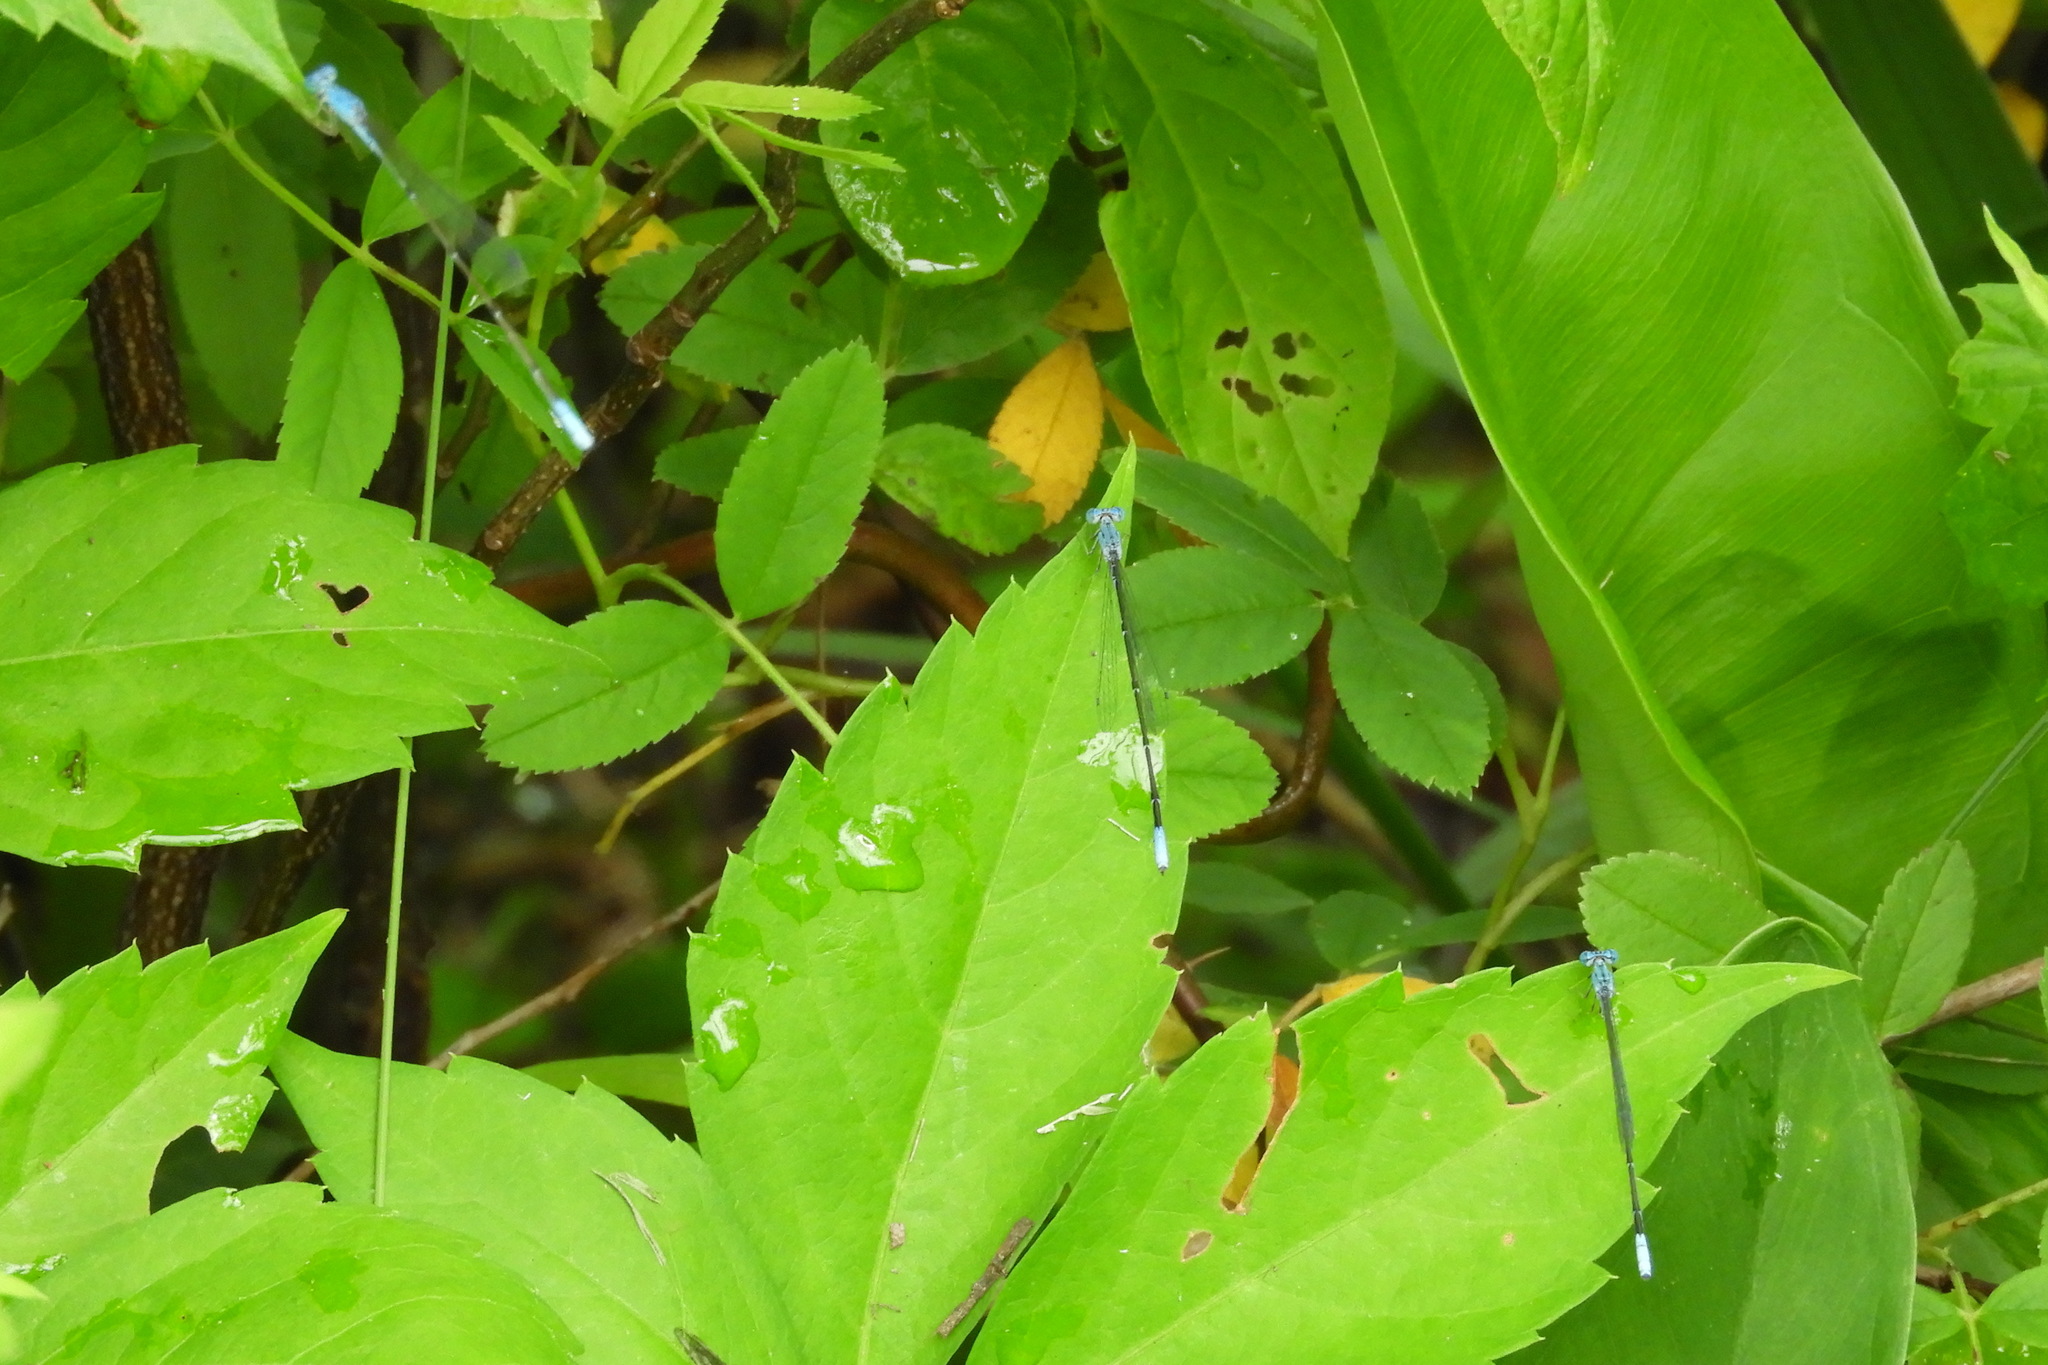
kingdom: Animalia
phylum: Arthropoda
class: Insecta
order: Odonata
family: Coenagrionidae
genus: Enallagma
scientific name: Enallagma daeckii
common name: Attenuated bluet
